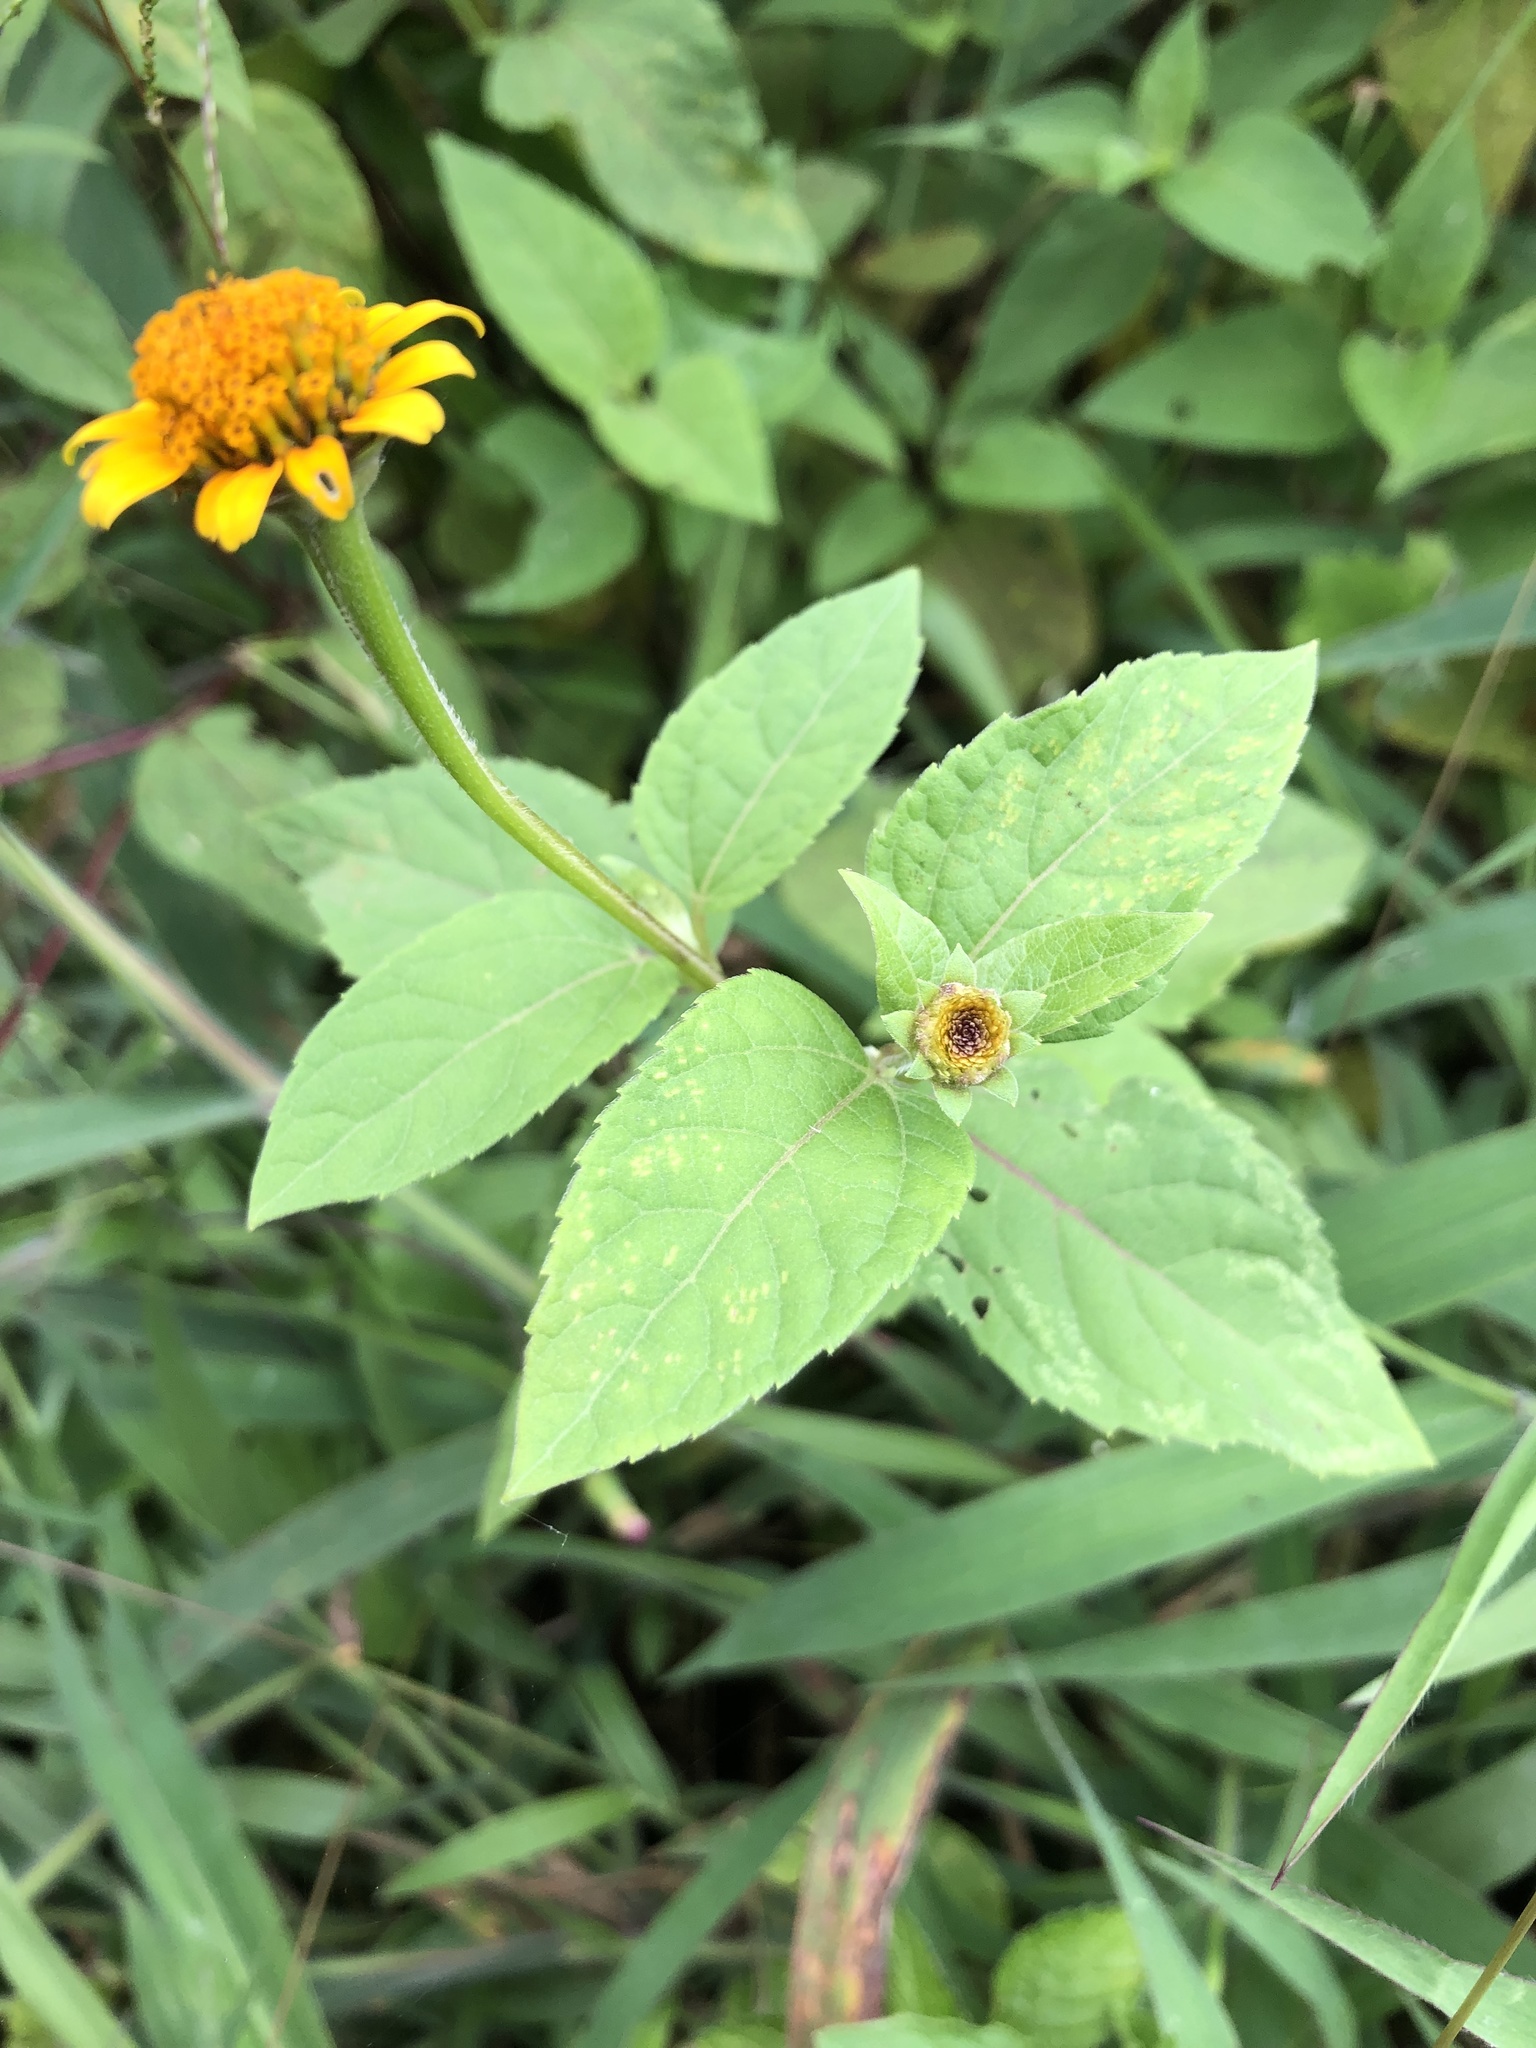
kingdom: Plantae
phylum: Tracheophyta
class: Magnoliopsida
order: Asterales
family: Asteraceae
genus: Heliopsis
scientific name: Heliopsis buphthalmoides
